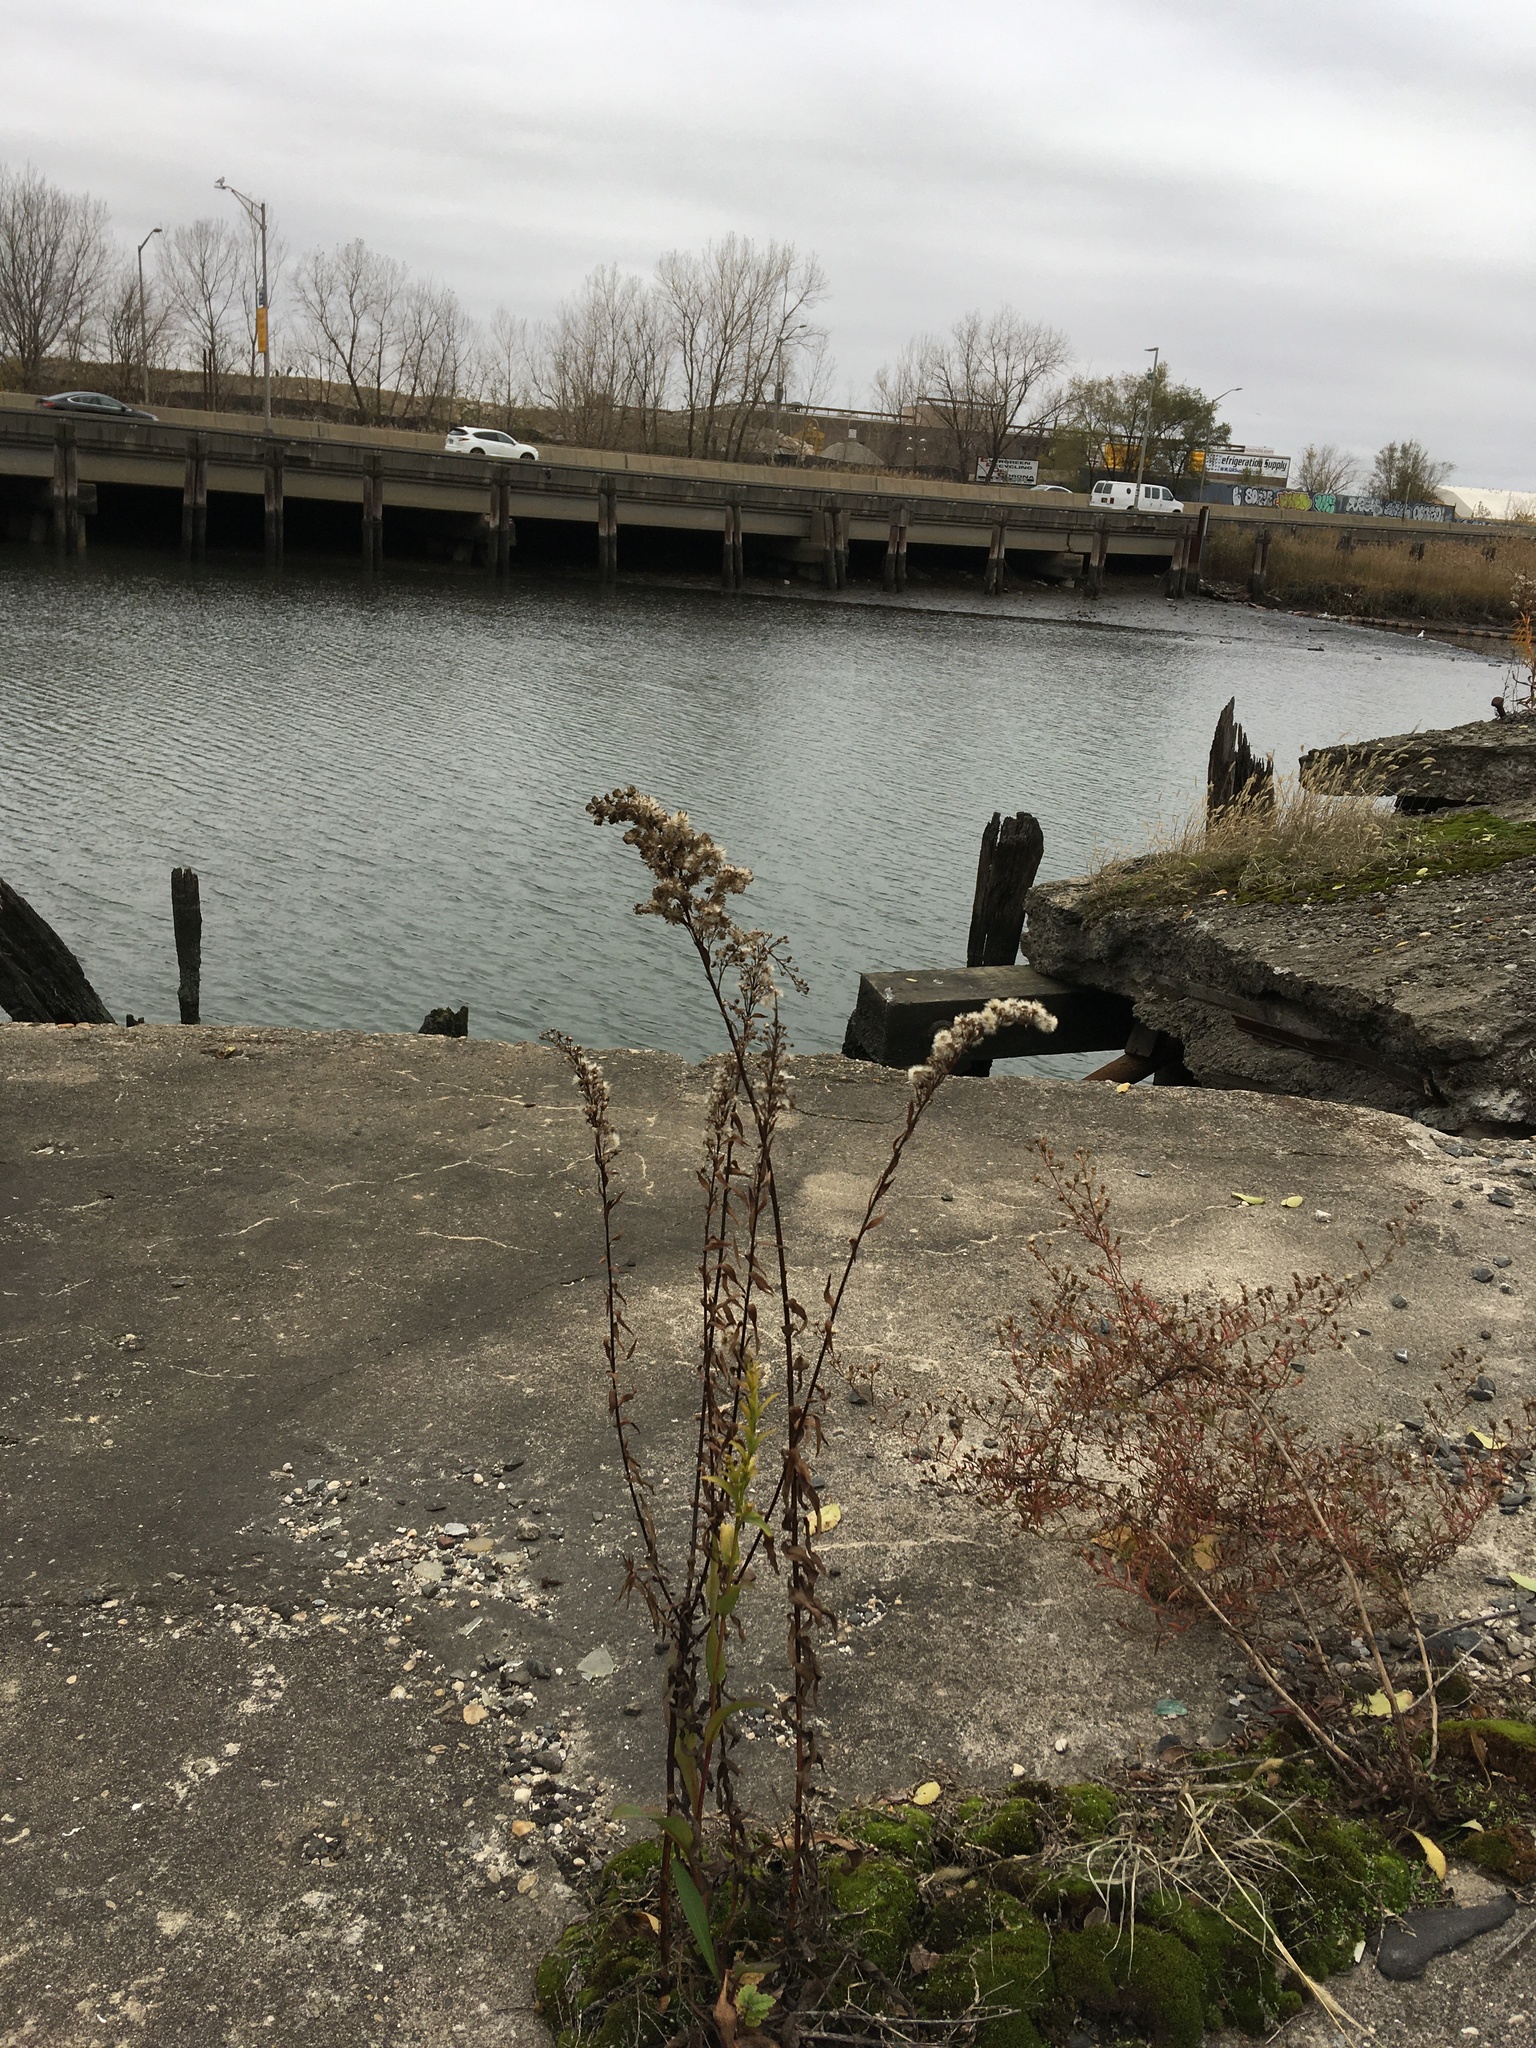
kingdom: Plantae
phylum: Tracheophyta
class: Magnoliopsida
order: Asterales
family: Asteraceae
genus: Solidago
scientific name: Solidago sempervirens
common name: Salt-marsh goldenrod
